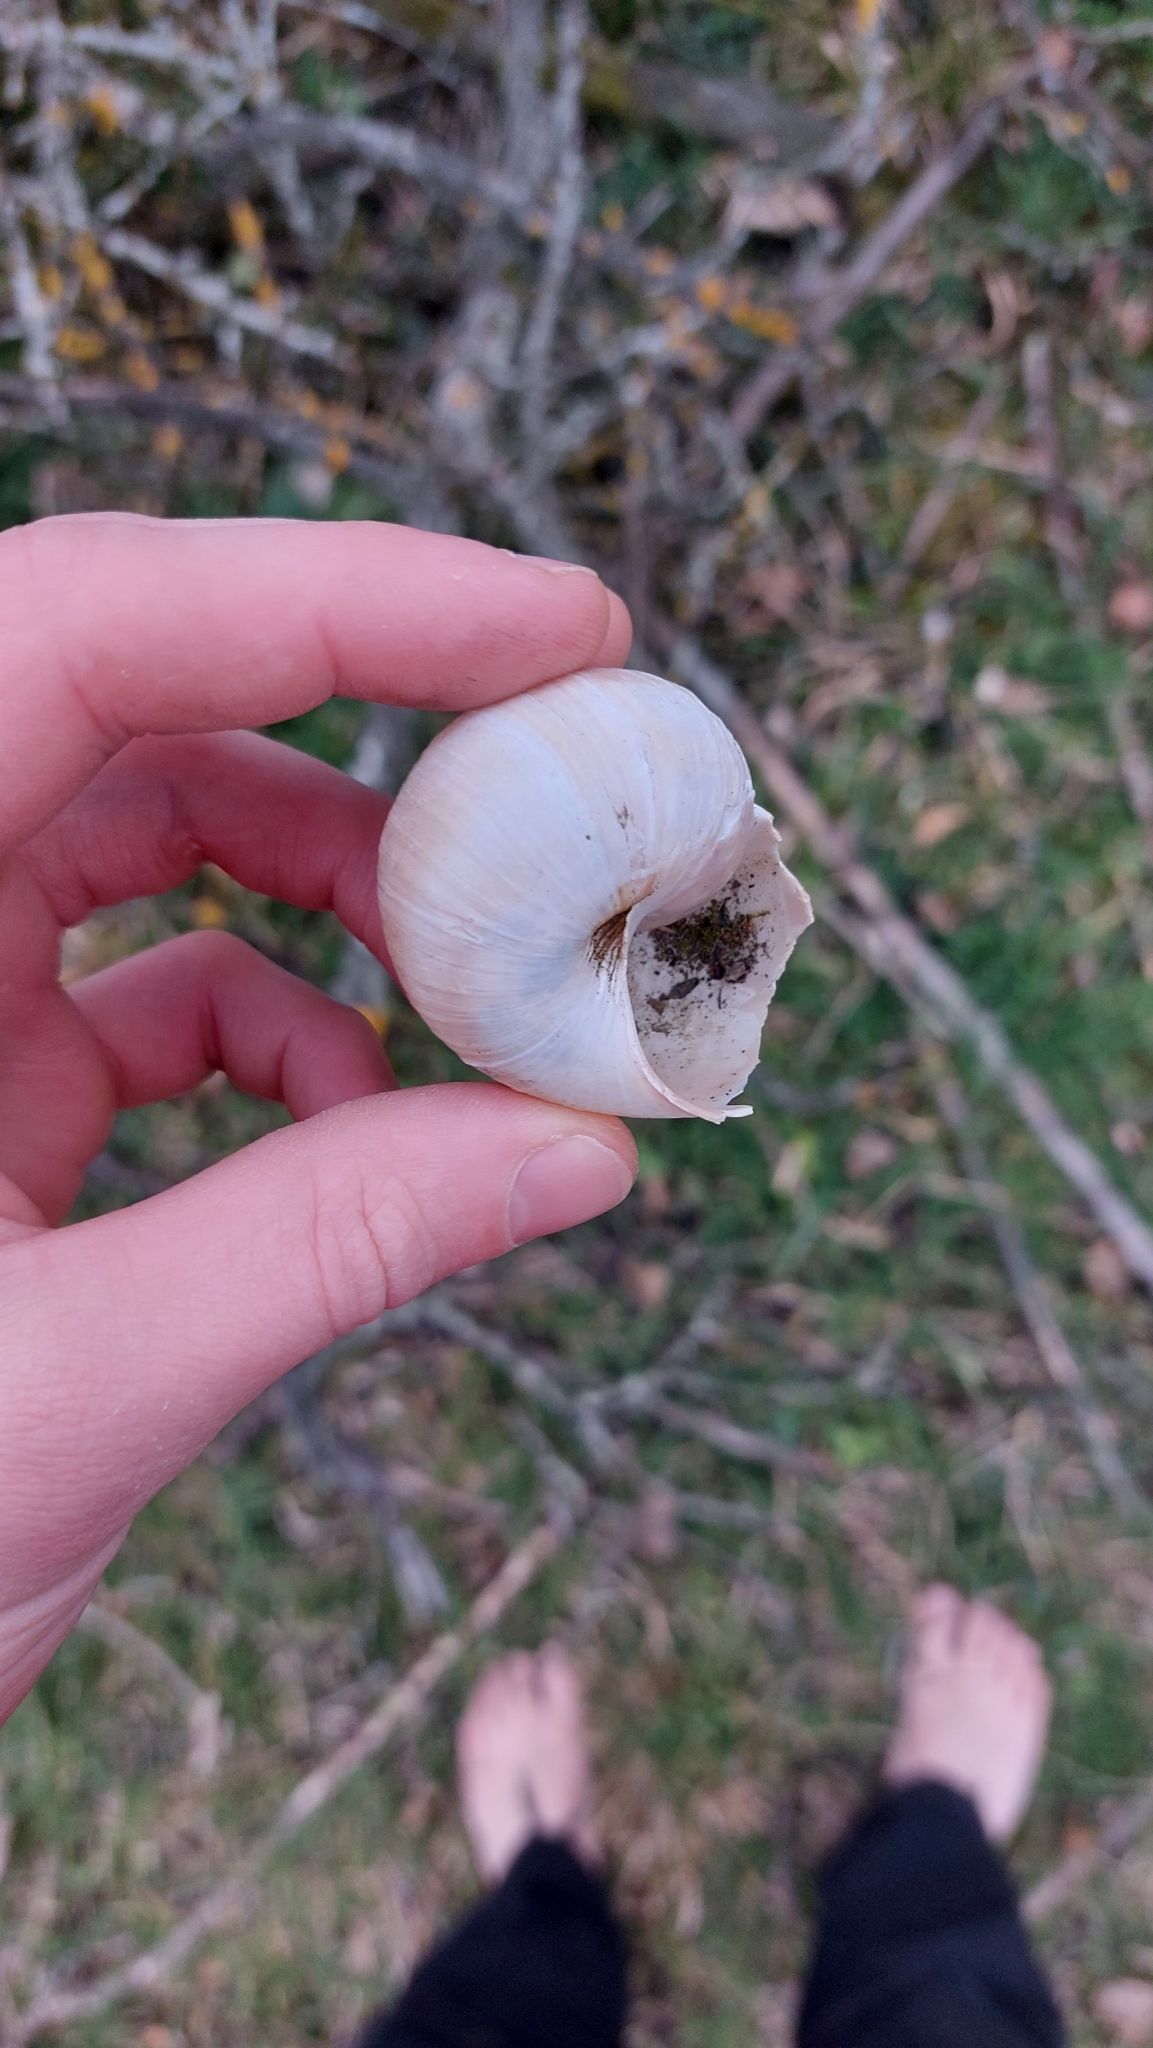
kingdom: Animalia
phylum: Mollusca
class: Gastropoda
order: Stylommatophora
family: Helicidae
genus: Helix
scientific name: Helix pomatia
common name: Roman snail
